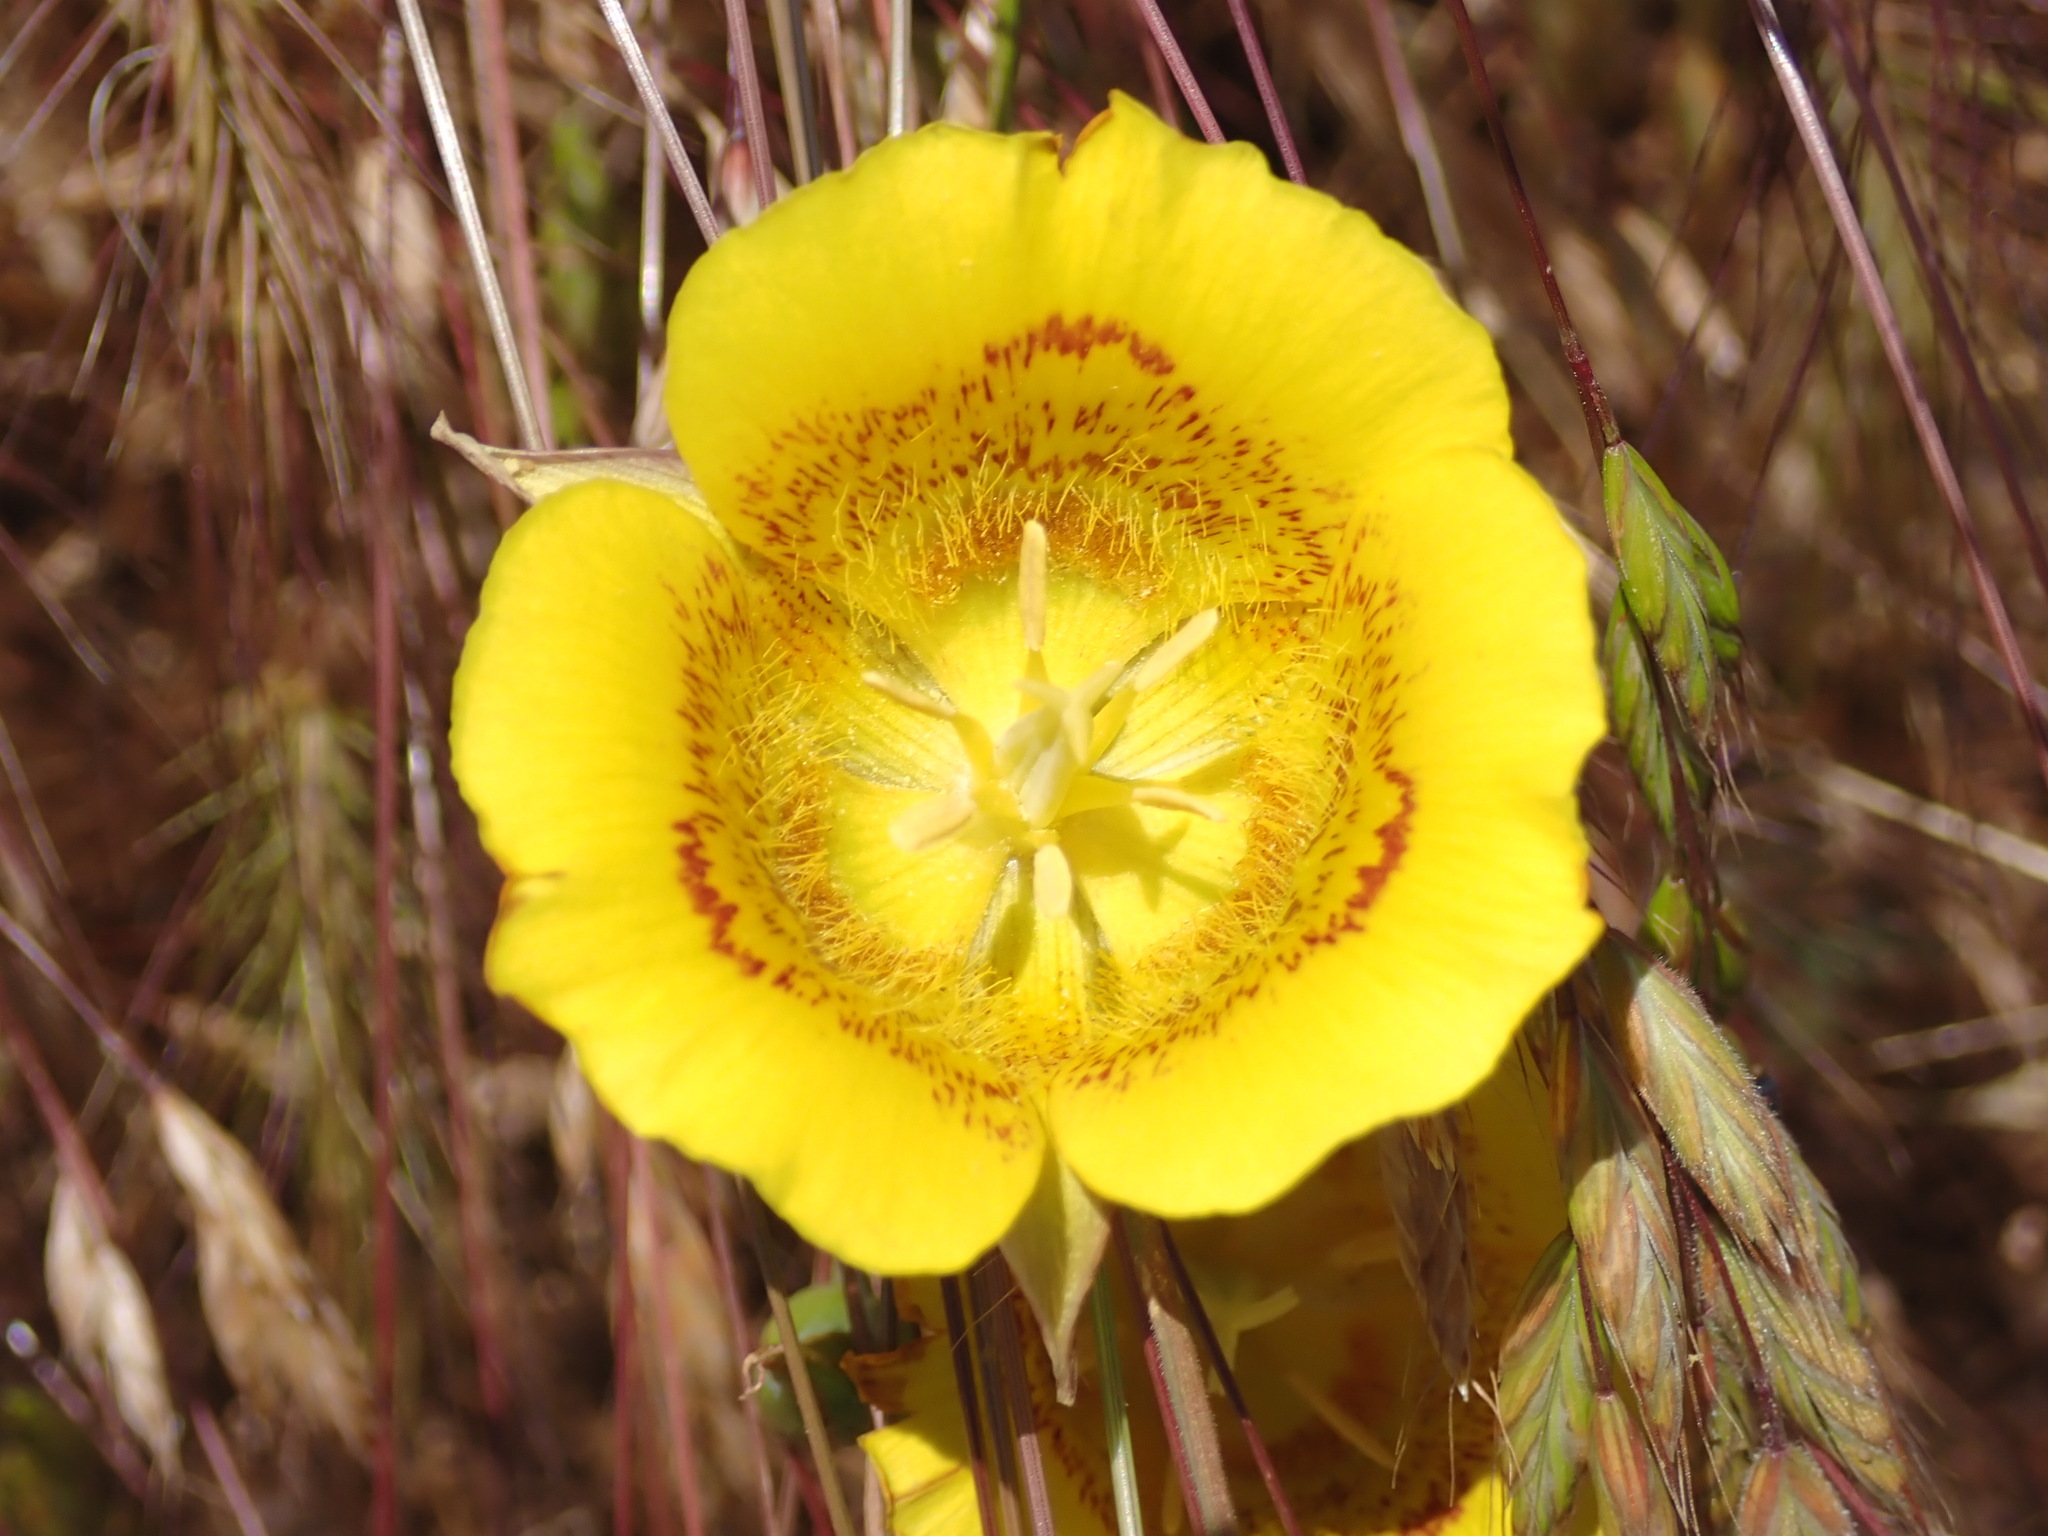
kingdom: Plantae
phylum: Tracheophyta
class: Liliopsida
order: Liliales
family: Liliaceae
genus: Calochortus
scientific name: Calochortus luteus
